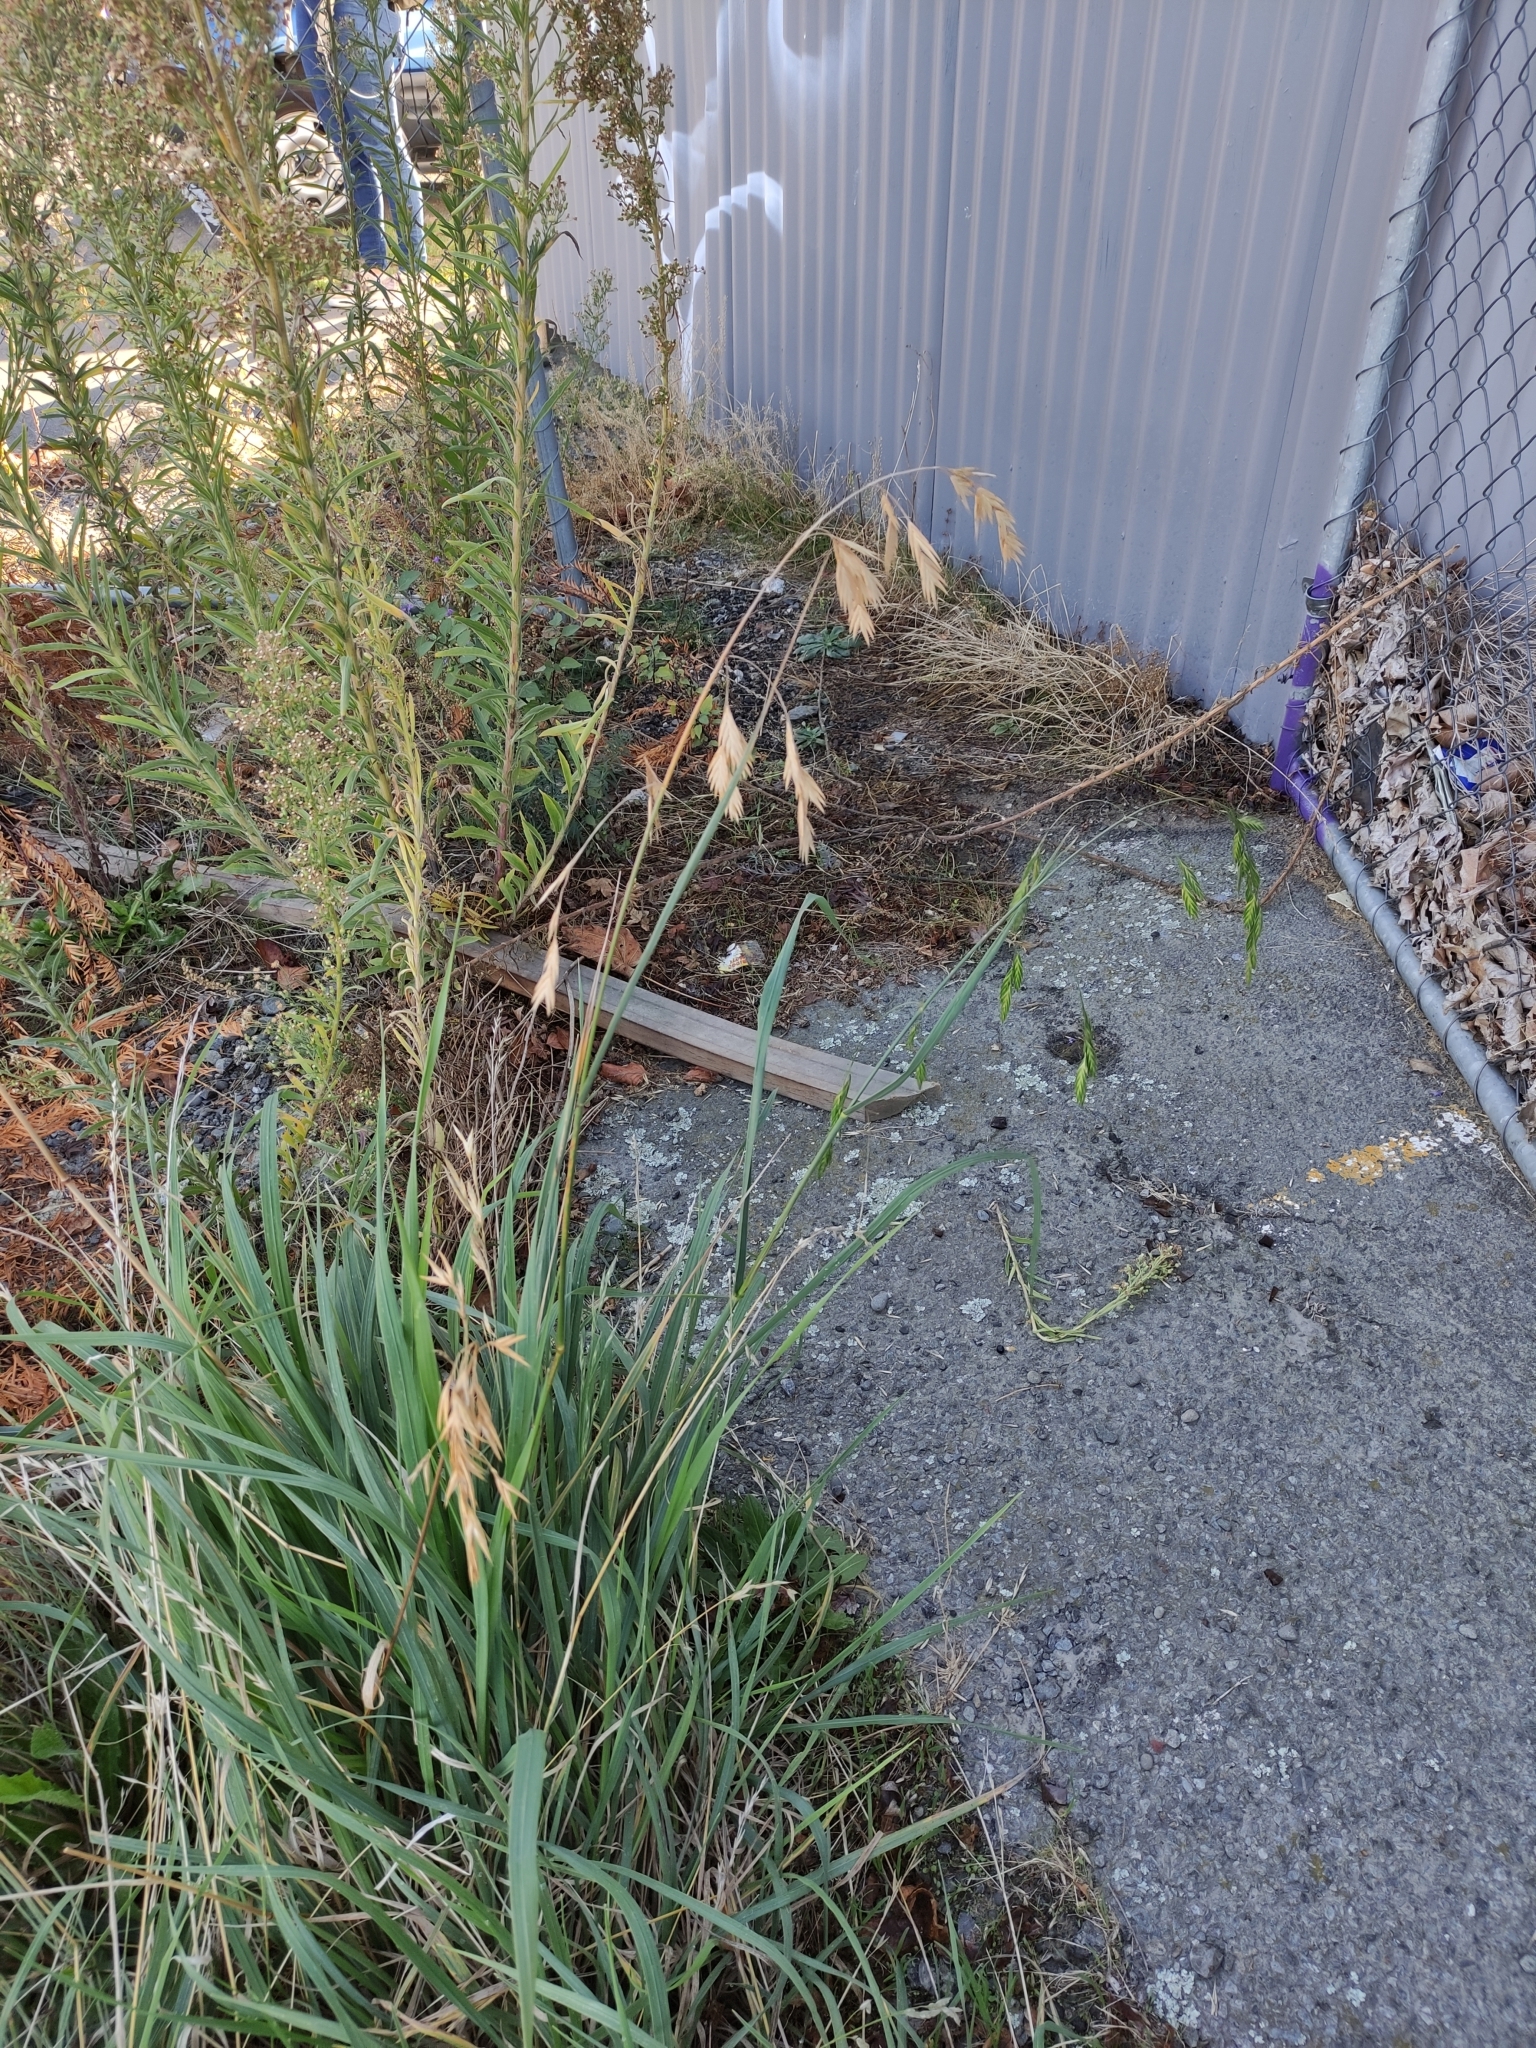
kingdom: Plantae
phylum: Tracheophyta
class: Liliopsida
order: Poales
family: Poaceae
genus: Bromus
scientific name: Bromus catharticus
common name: Rescuegrass
